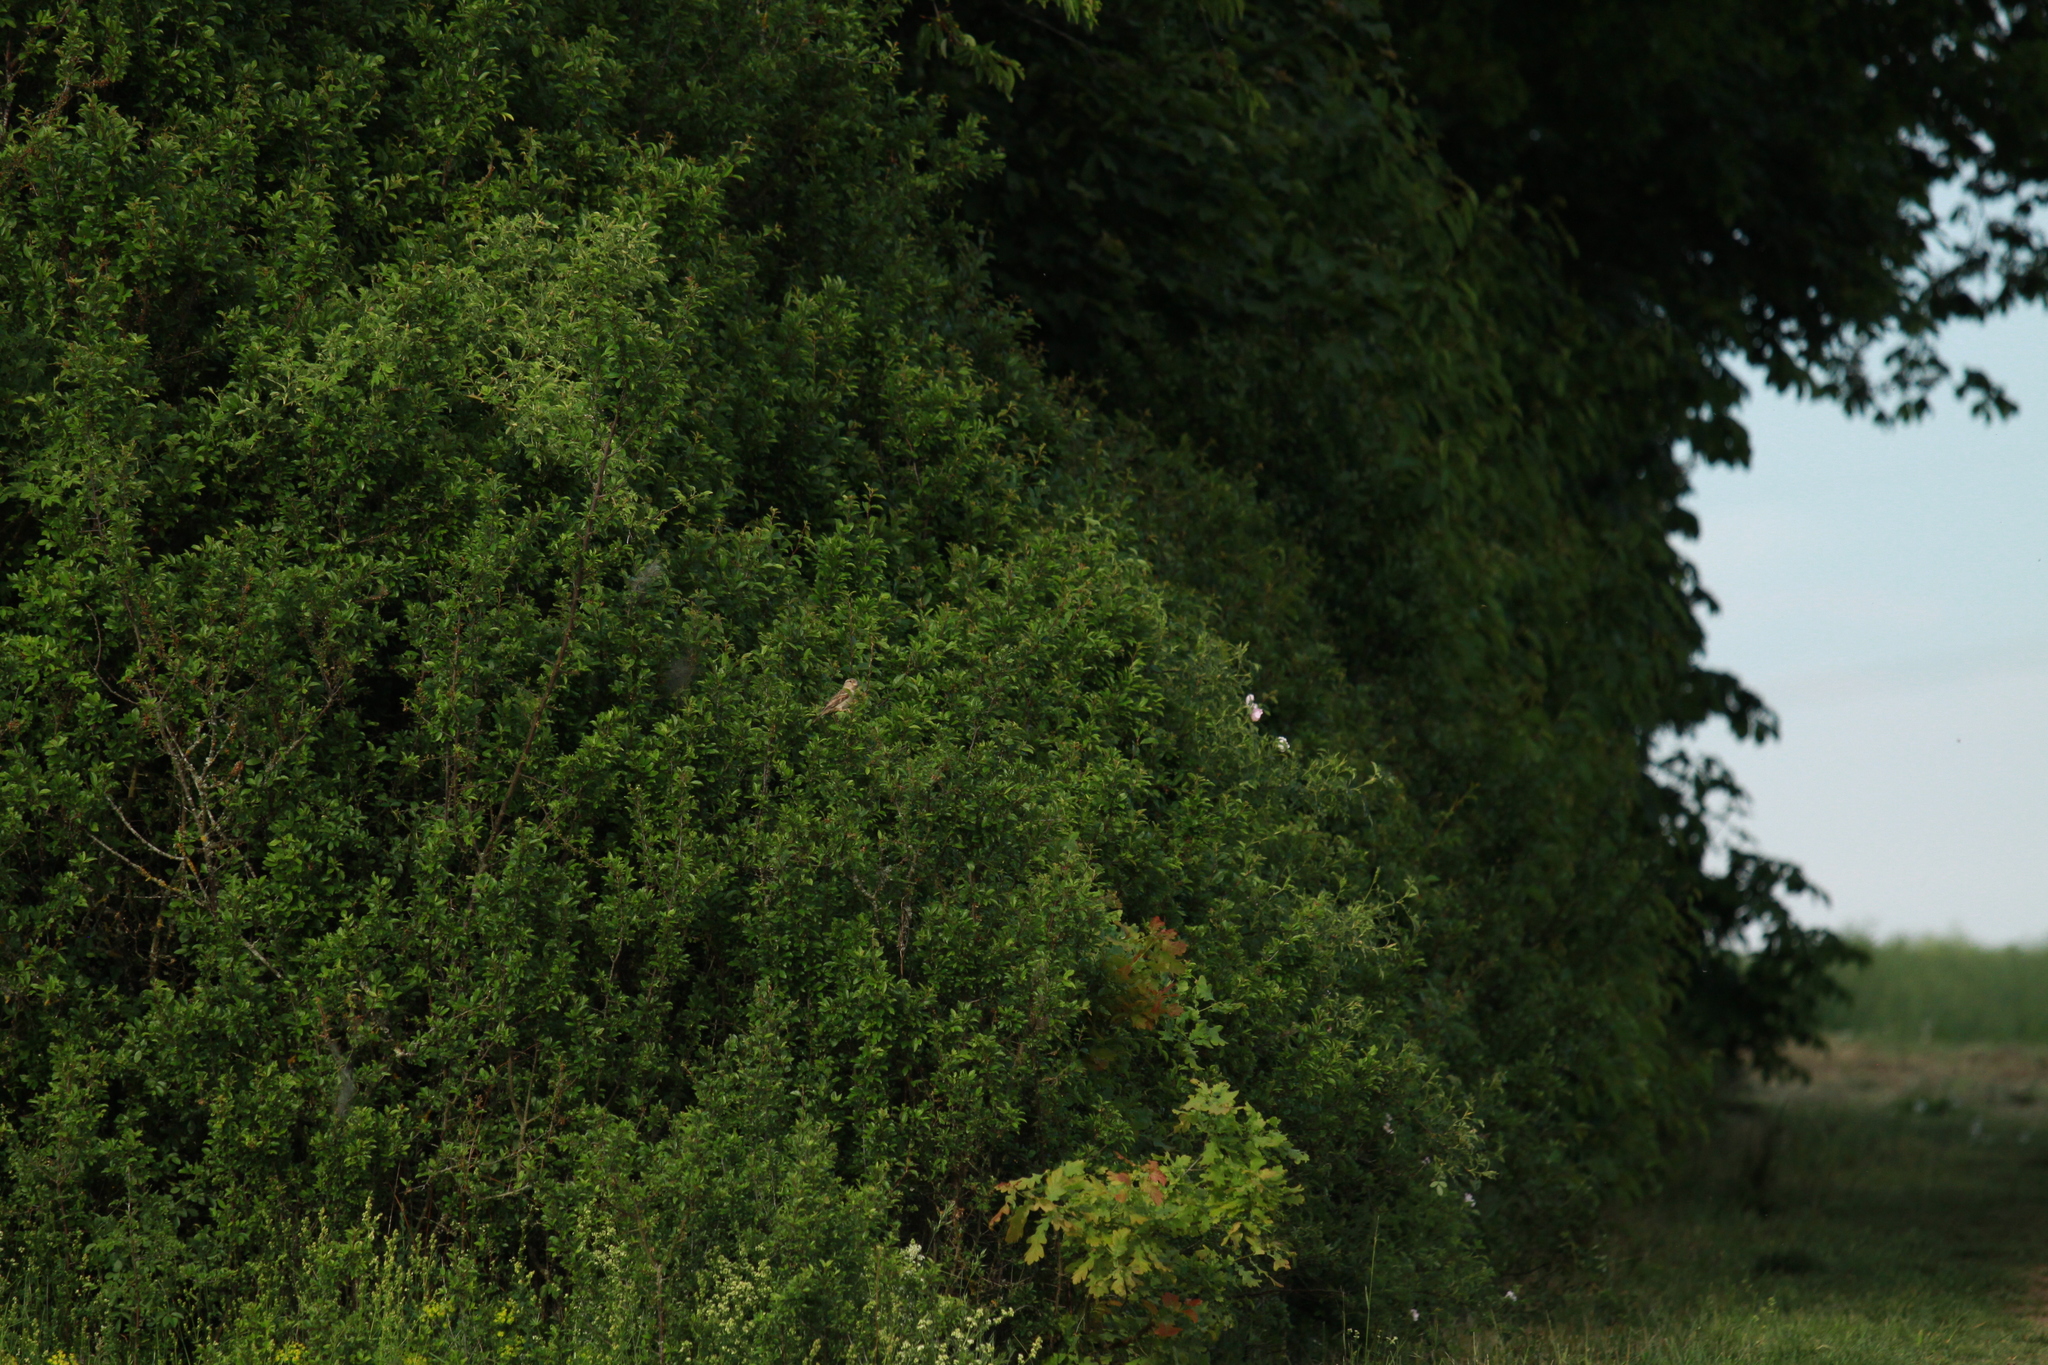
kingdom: Animalia
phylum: Chordata
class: Aves
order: Passeriformes
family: Passeridae
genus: Passer
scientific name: Passer domesticus
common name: House sparrow
